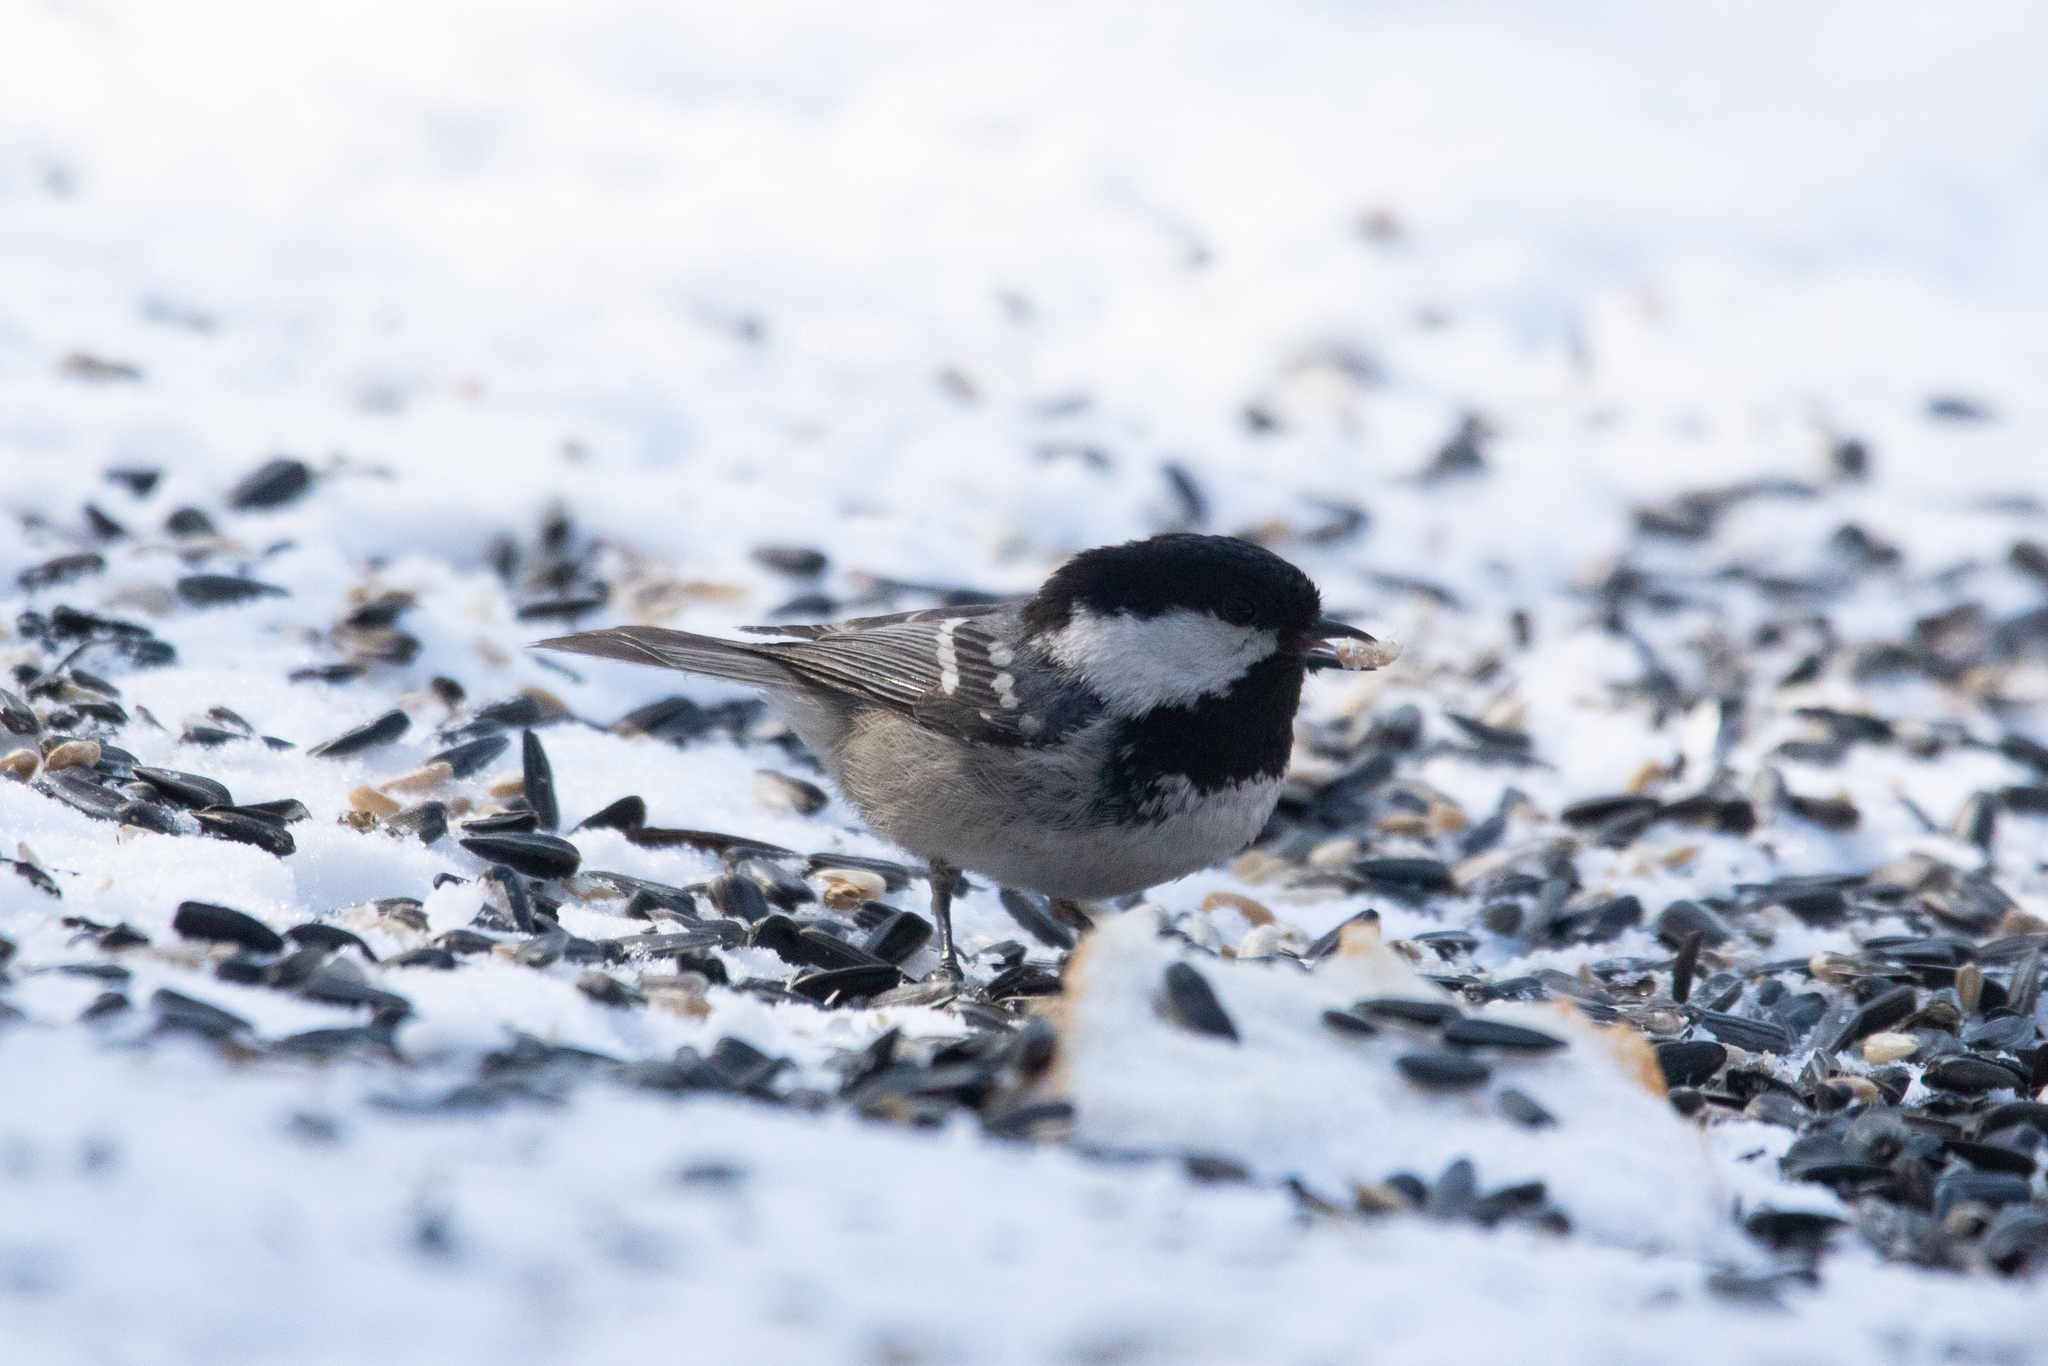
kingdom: Animalia
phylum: Chordata
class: Aves
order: Passeriformes
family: Paridae
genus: Periparus
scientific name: Periparus ater
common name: Coal tit
